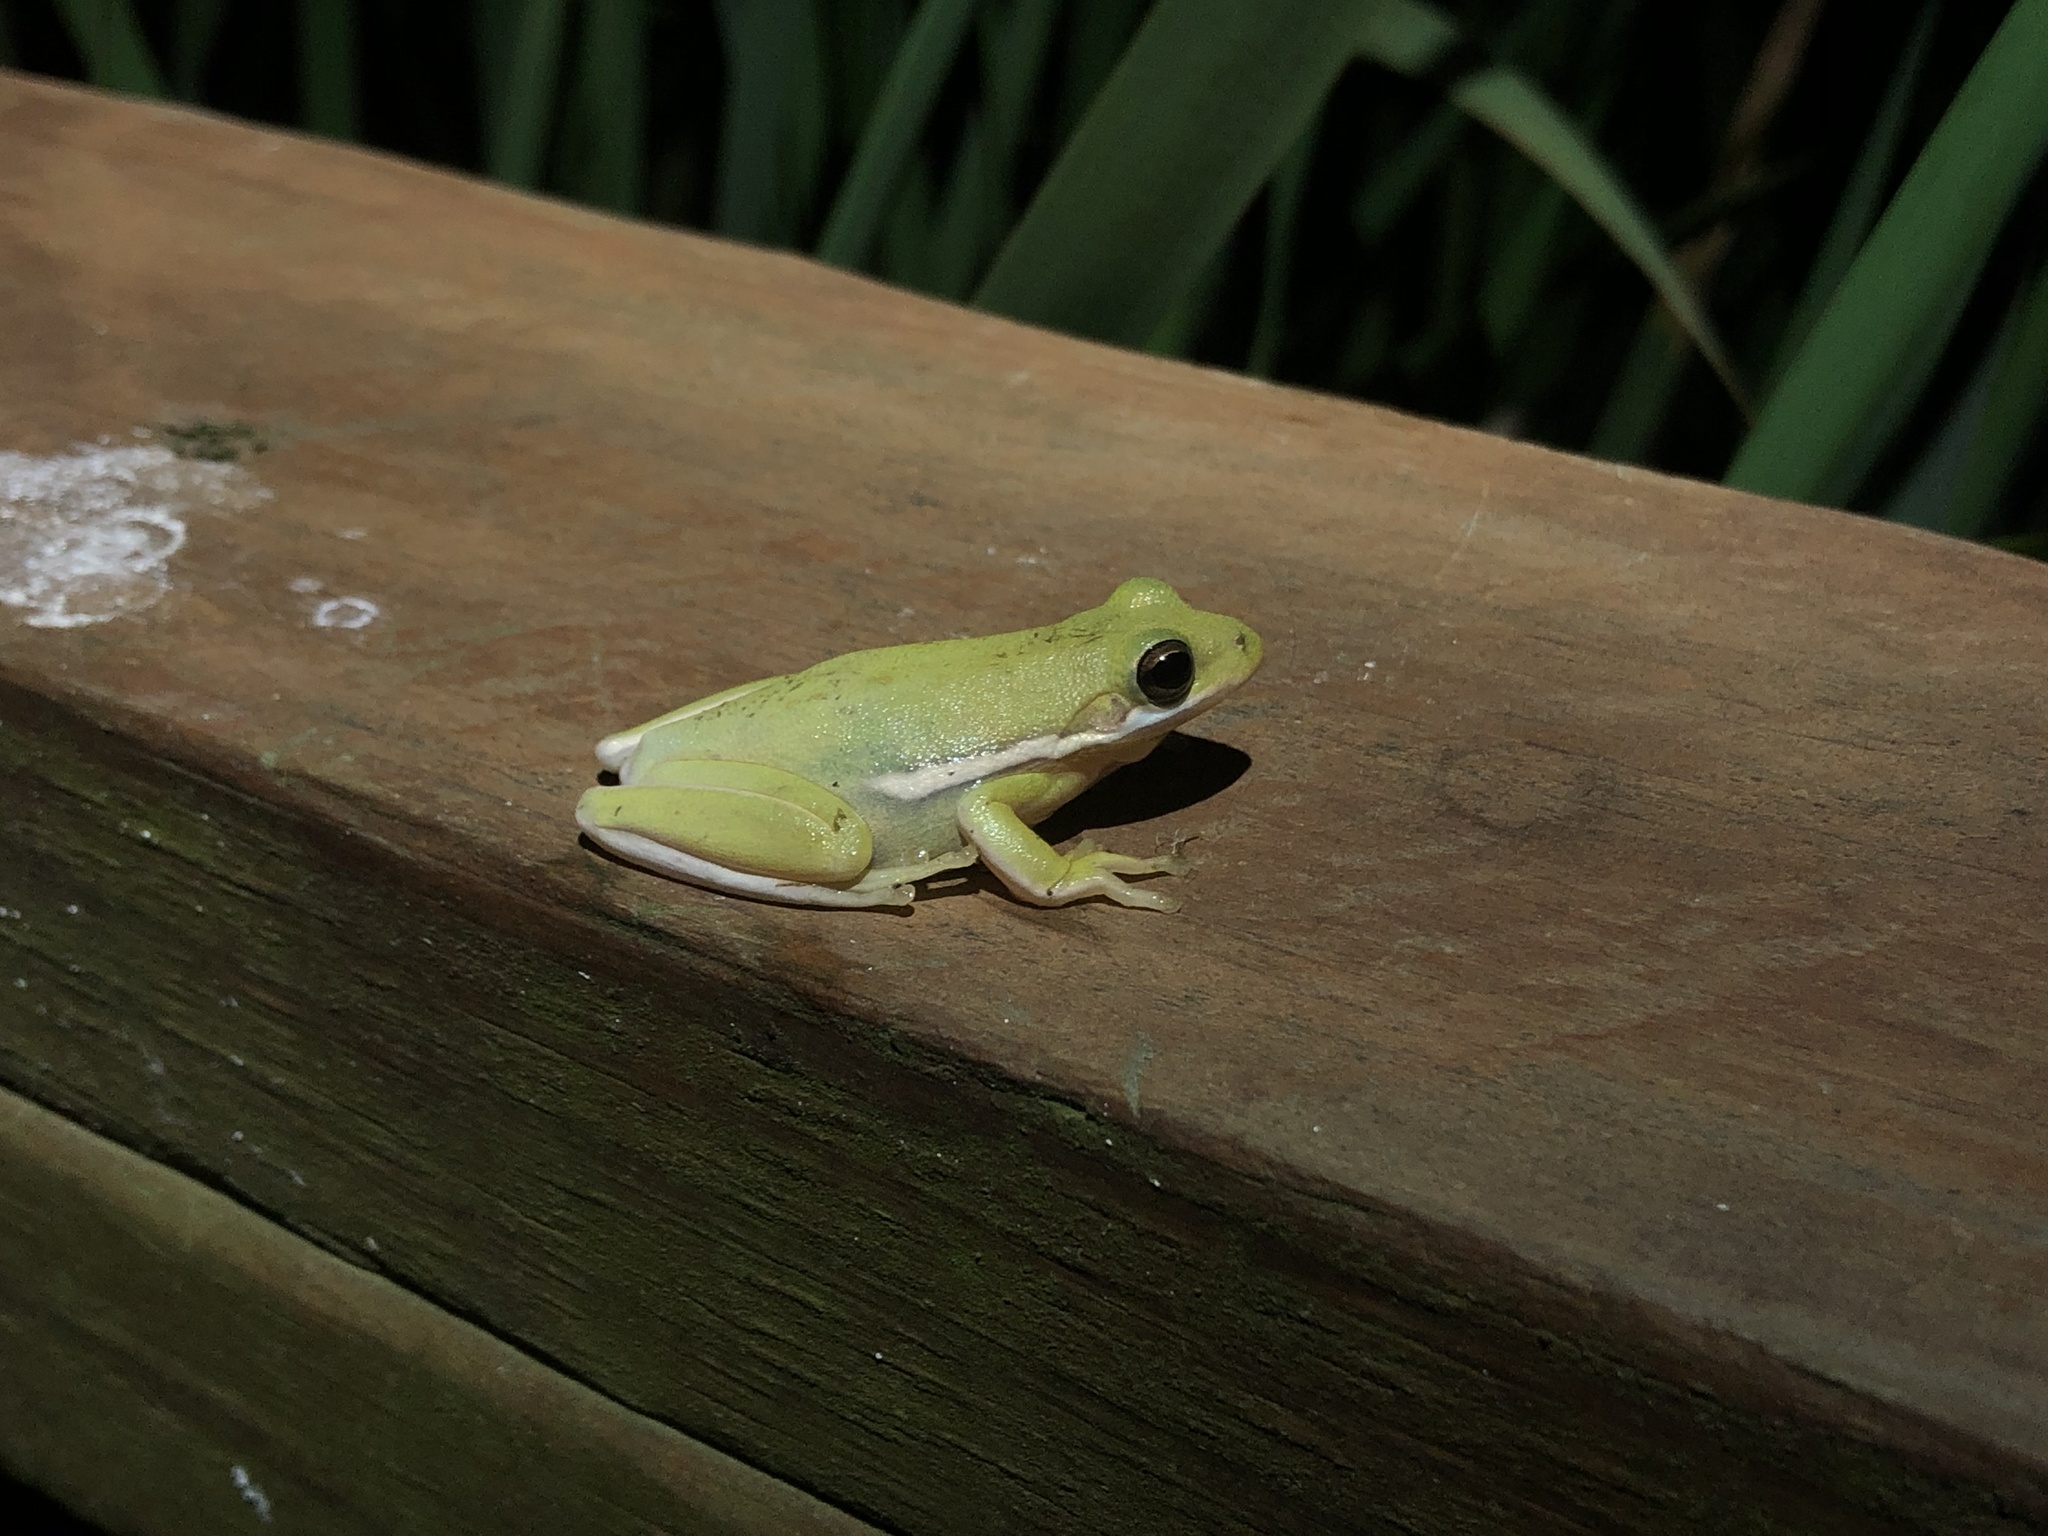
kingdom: Animalia
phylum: Chordata
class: Amphibia
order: Anura
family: Hylidae
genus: Dryophytes
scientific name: Dryophytes cinereus
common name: Green treefrog
